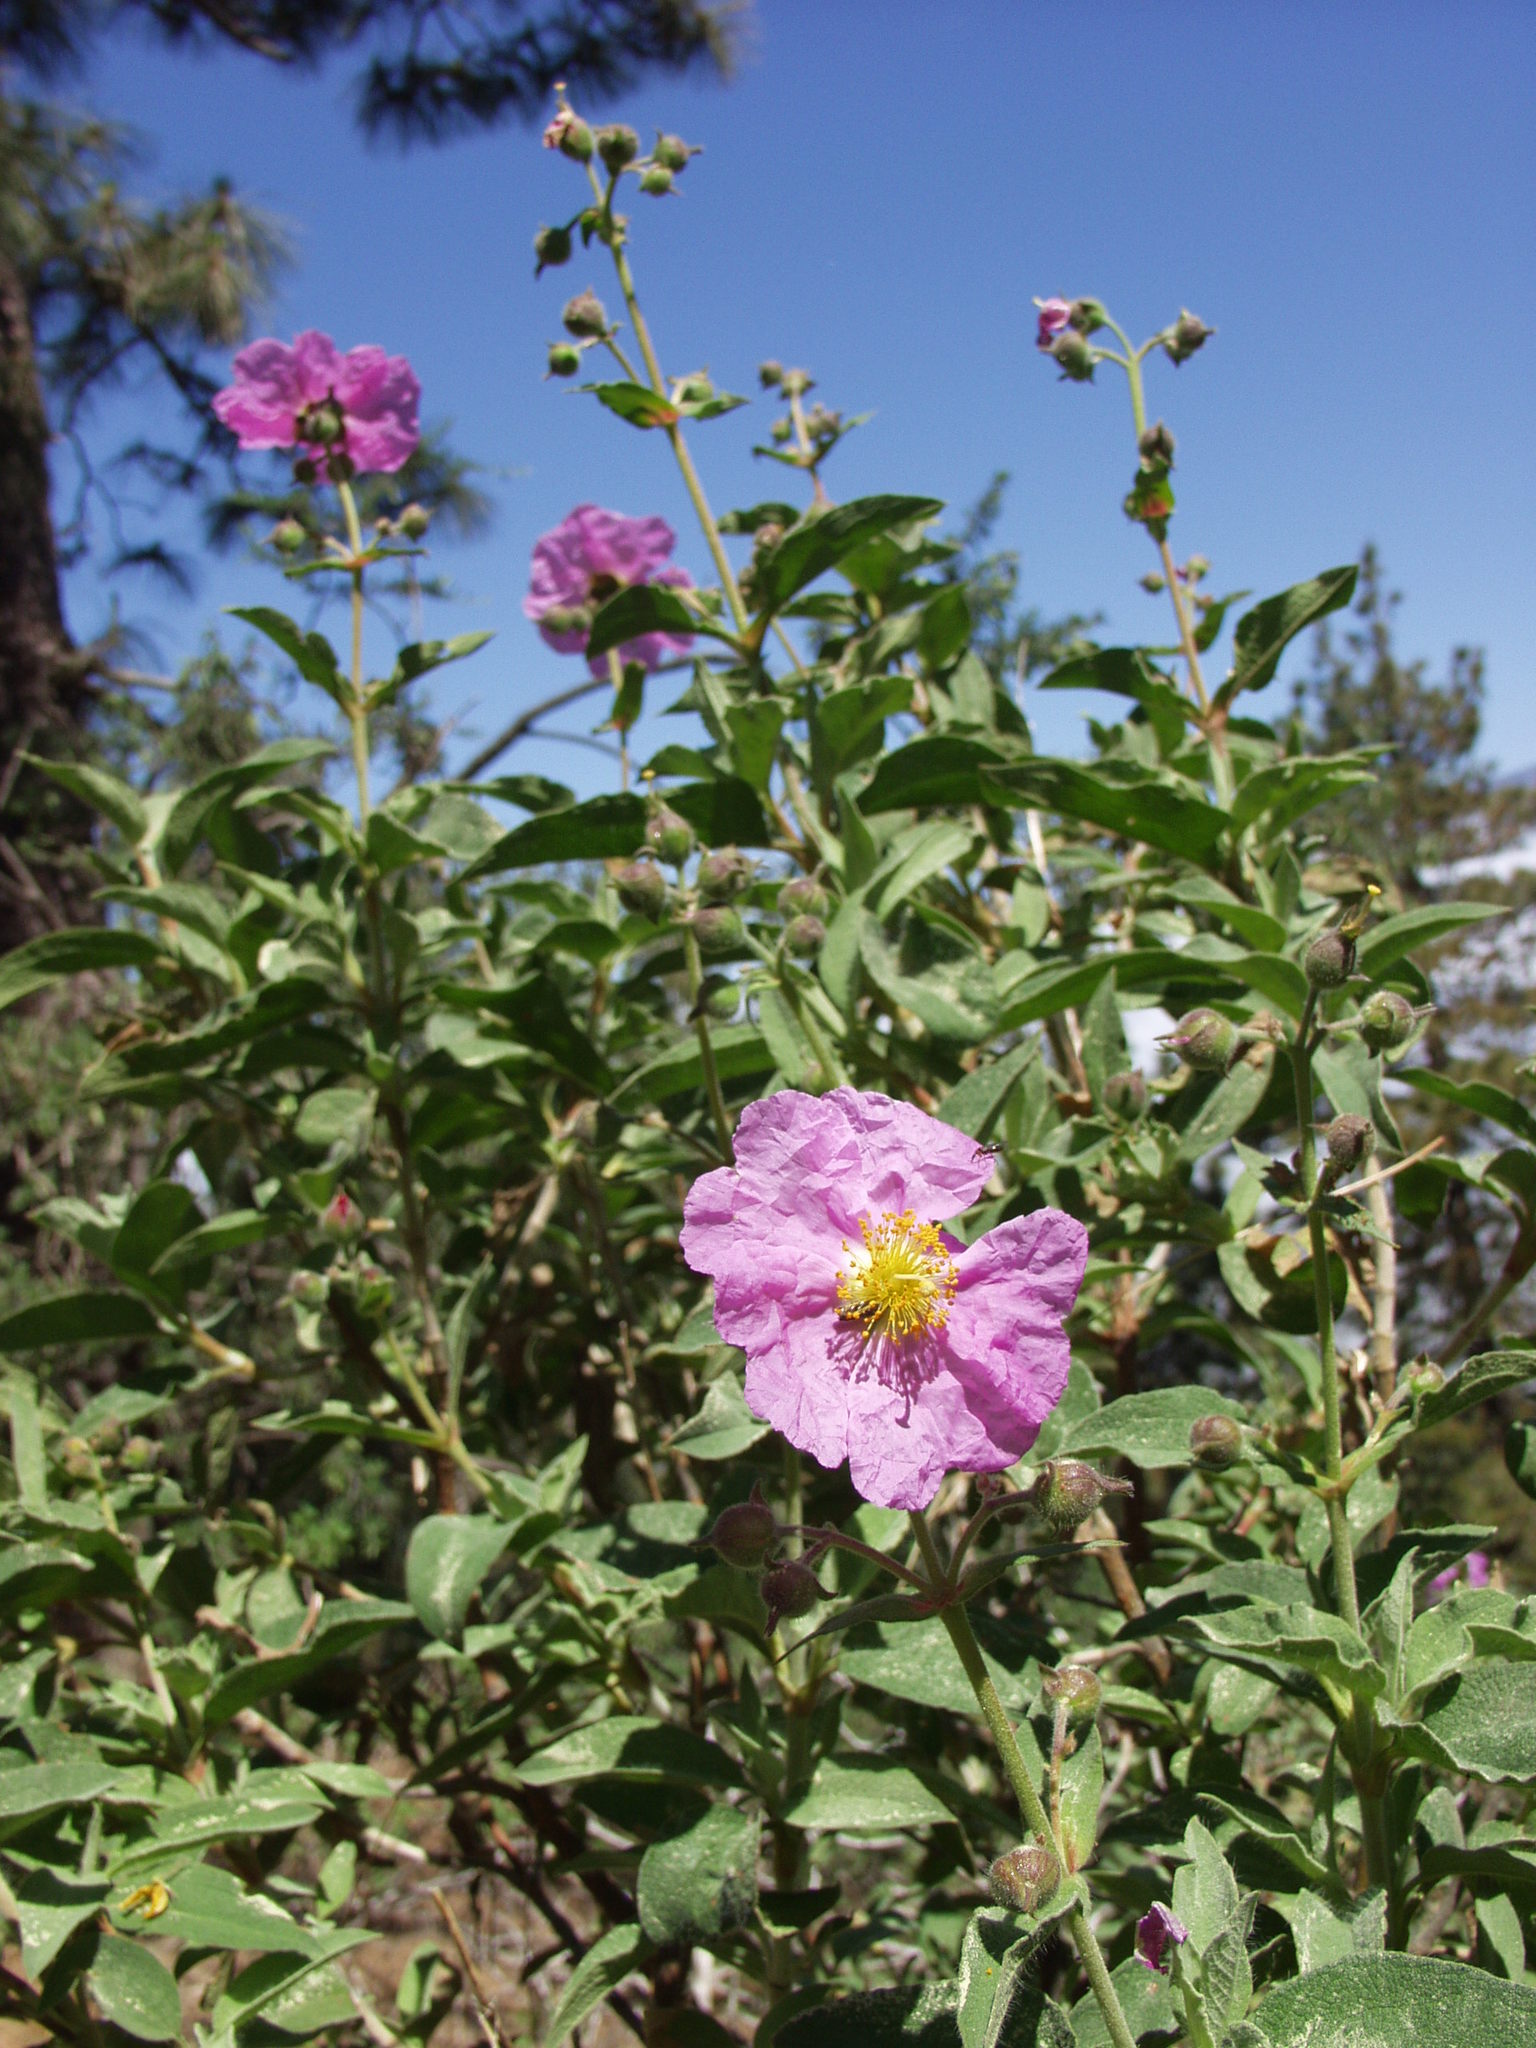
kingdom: Plantae
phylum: Tracheophyta
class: Magnoliopsida
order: Malvales
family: Cistaceae
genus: Cistus
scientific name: Cistus symphytifolius
